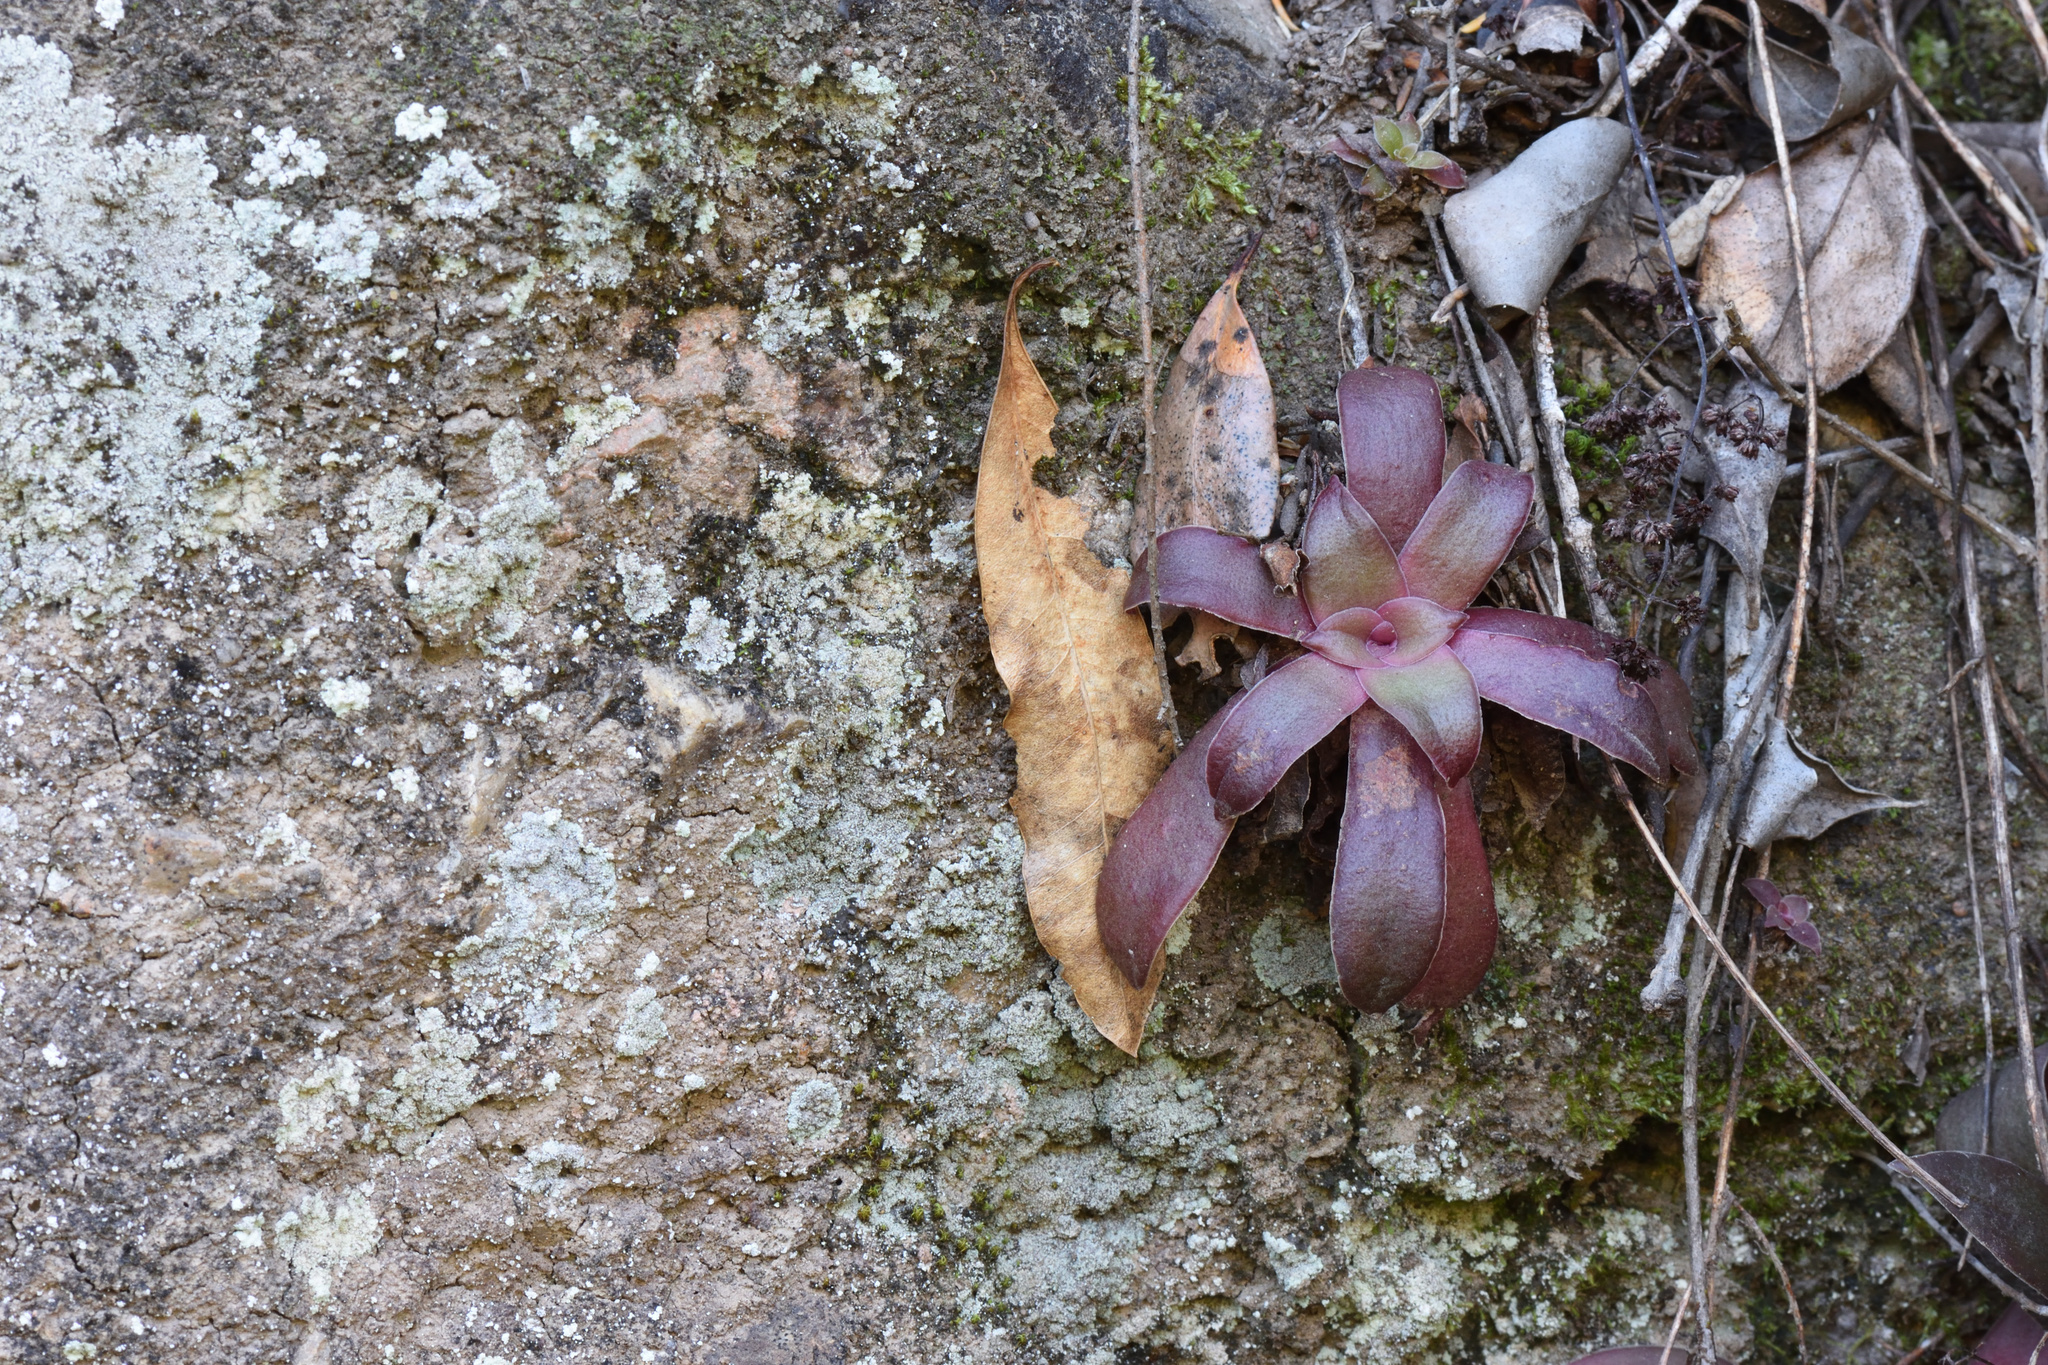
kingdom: Plantae
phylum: Tracheophyta
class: Magnoliopsida
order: Saxifragales
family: Crassulaceae
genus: Crassula
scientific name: Crassula orbicularis
